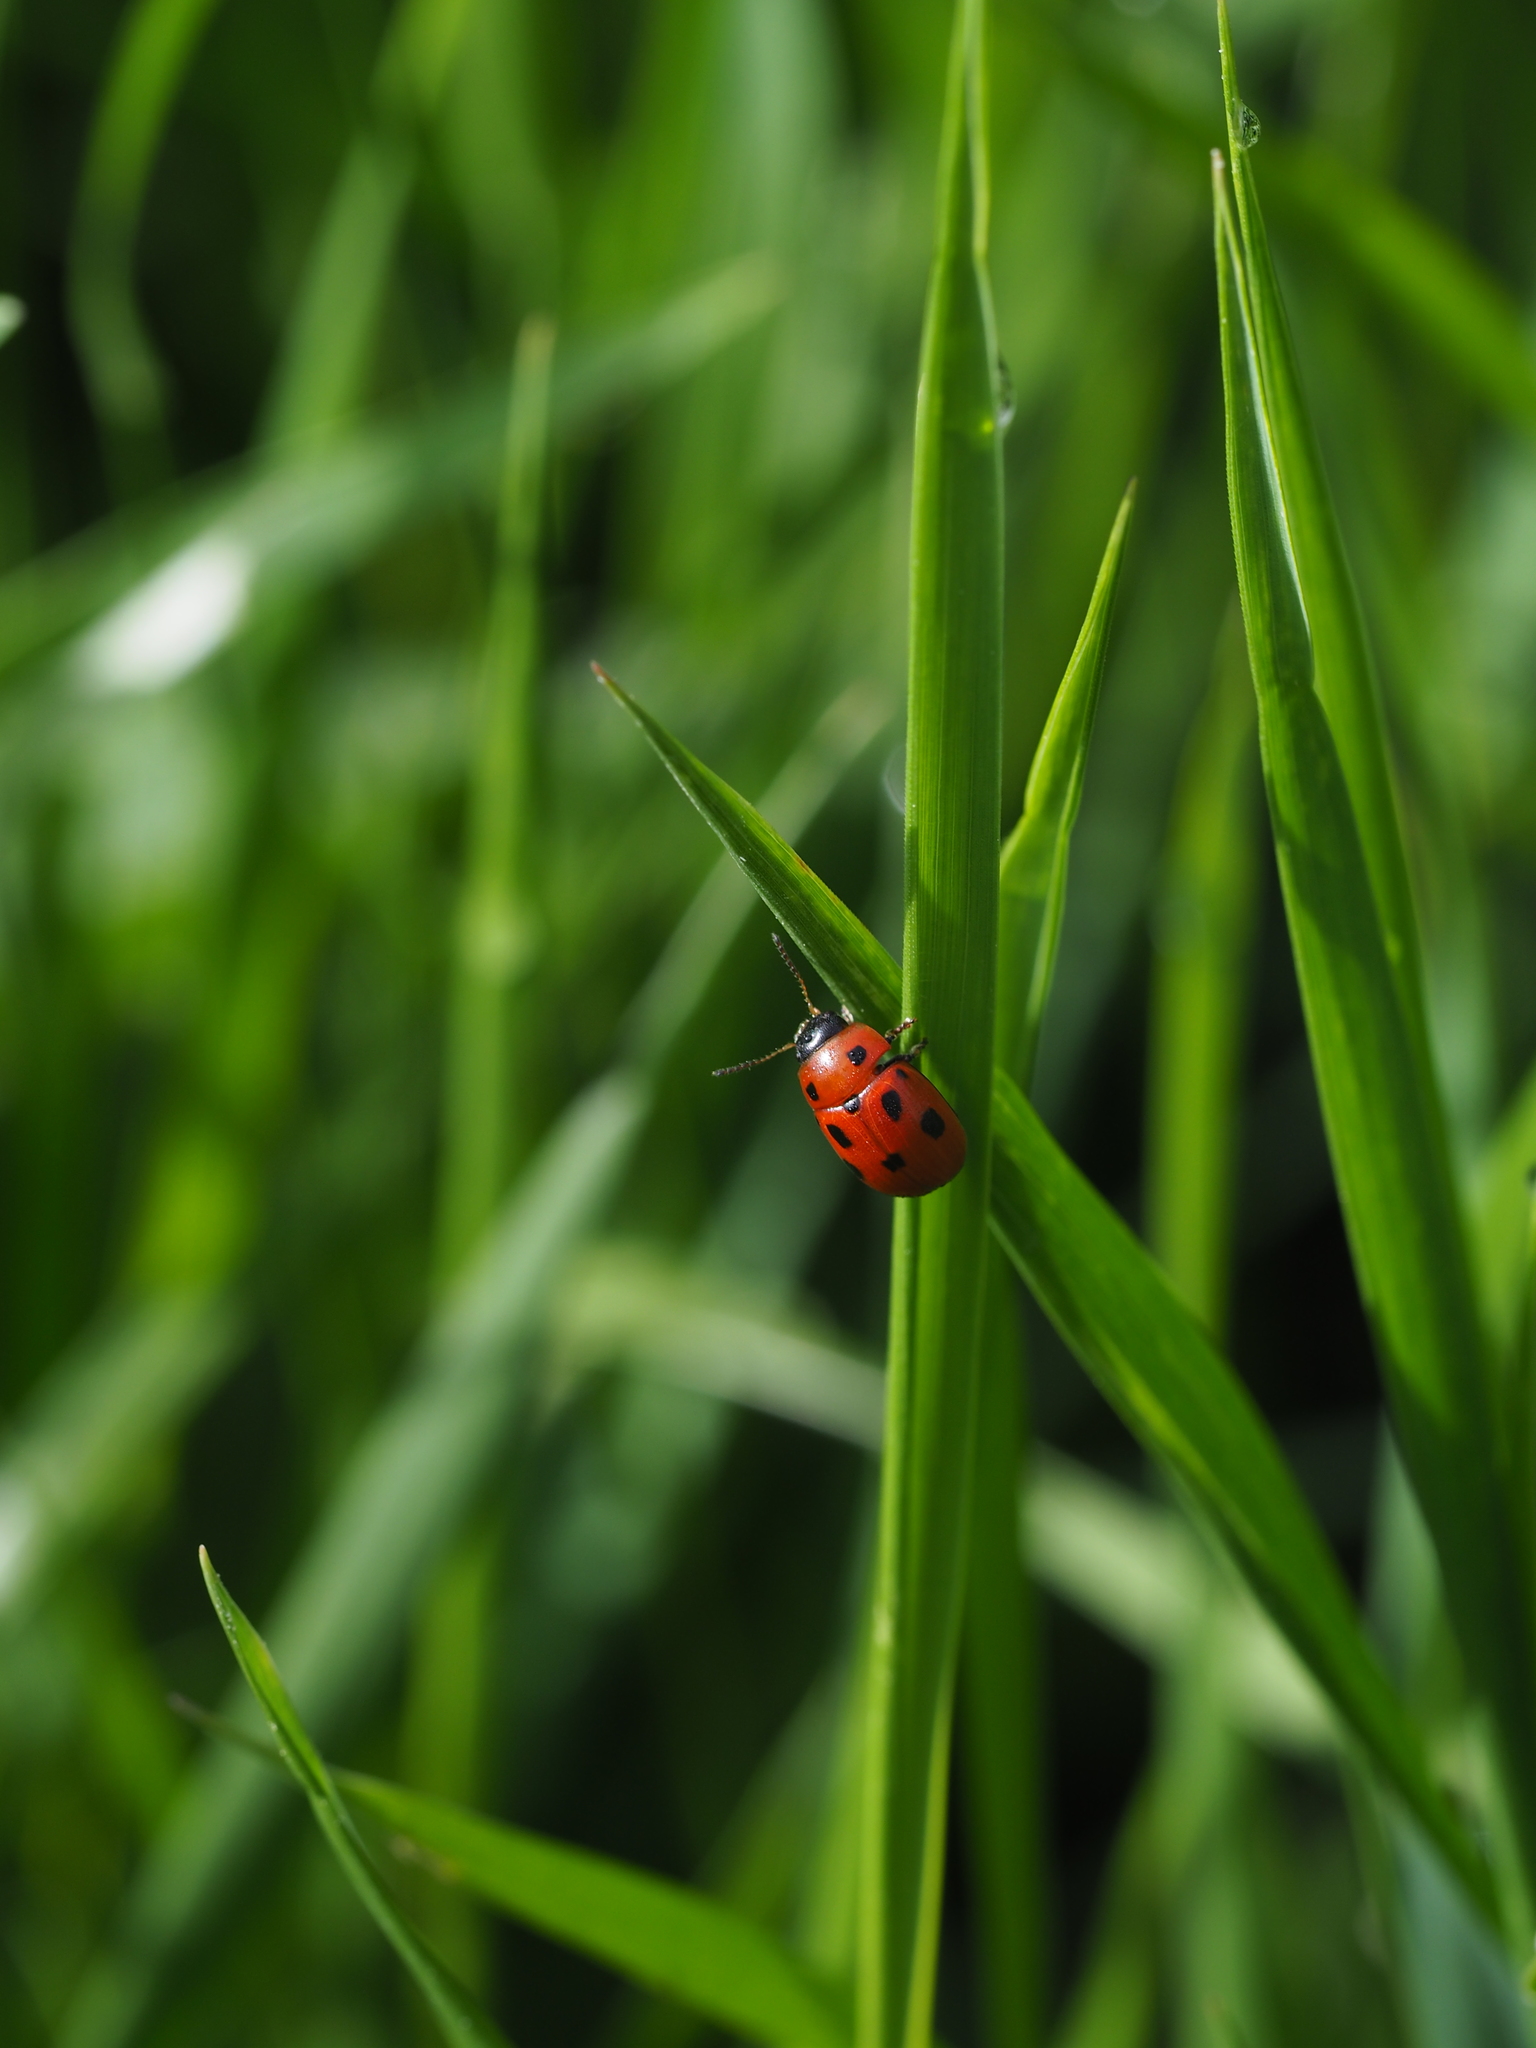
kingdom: Animalia
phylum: Arthropoda
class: Insecta
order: Coleoptera
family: Chrysomelidae
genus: Gonioctena
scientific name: Gonioctena fornicata
